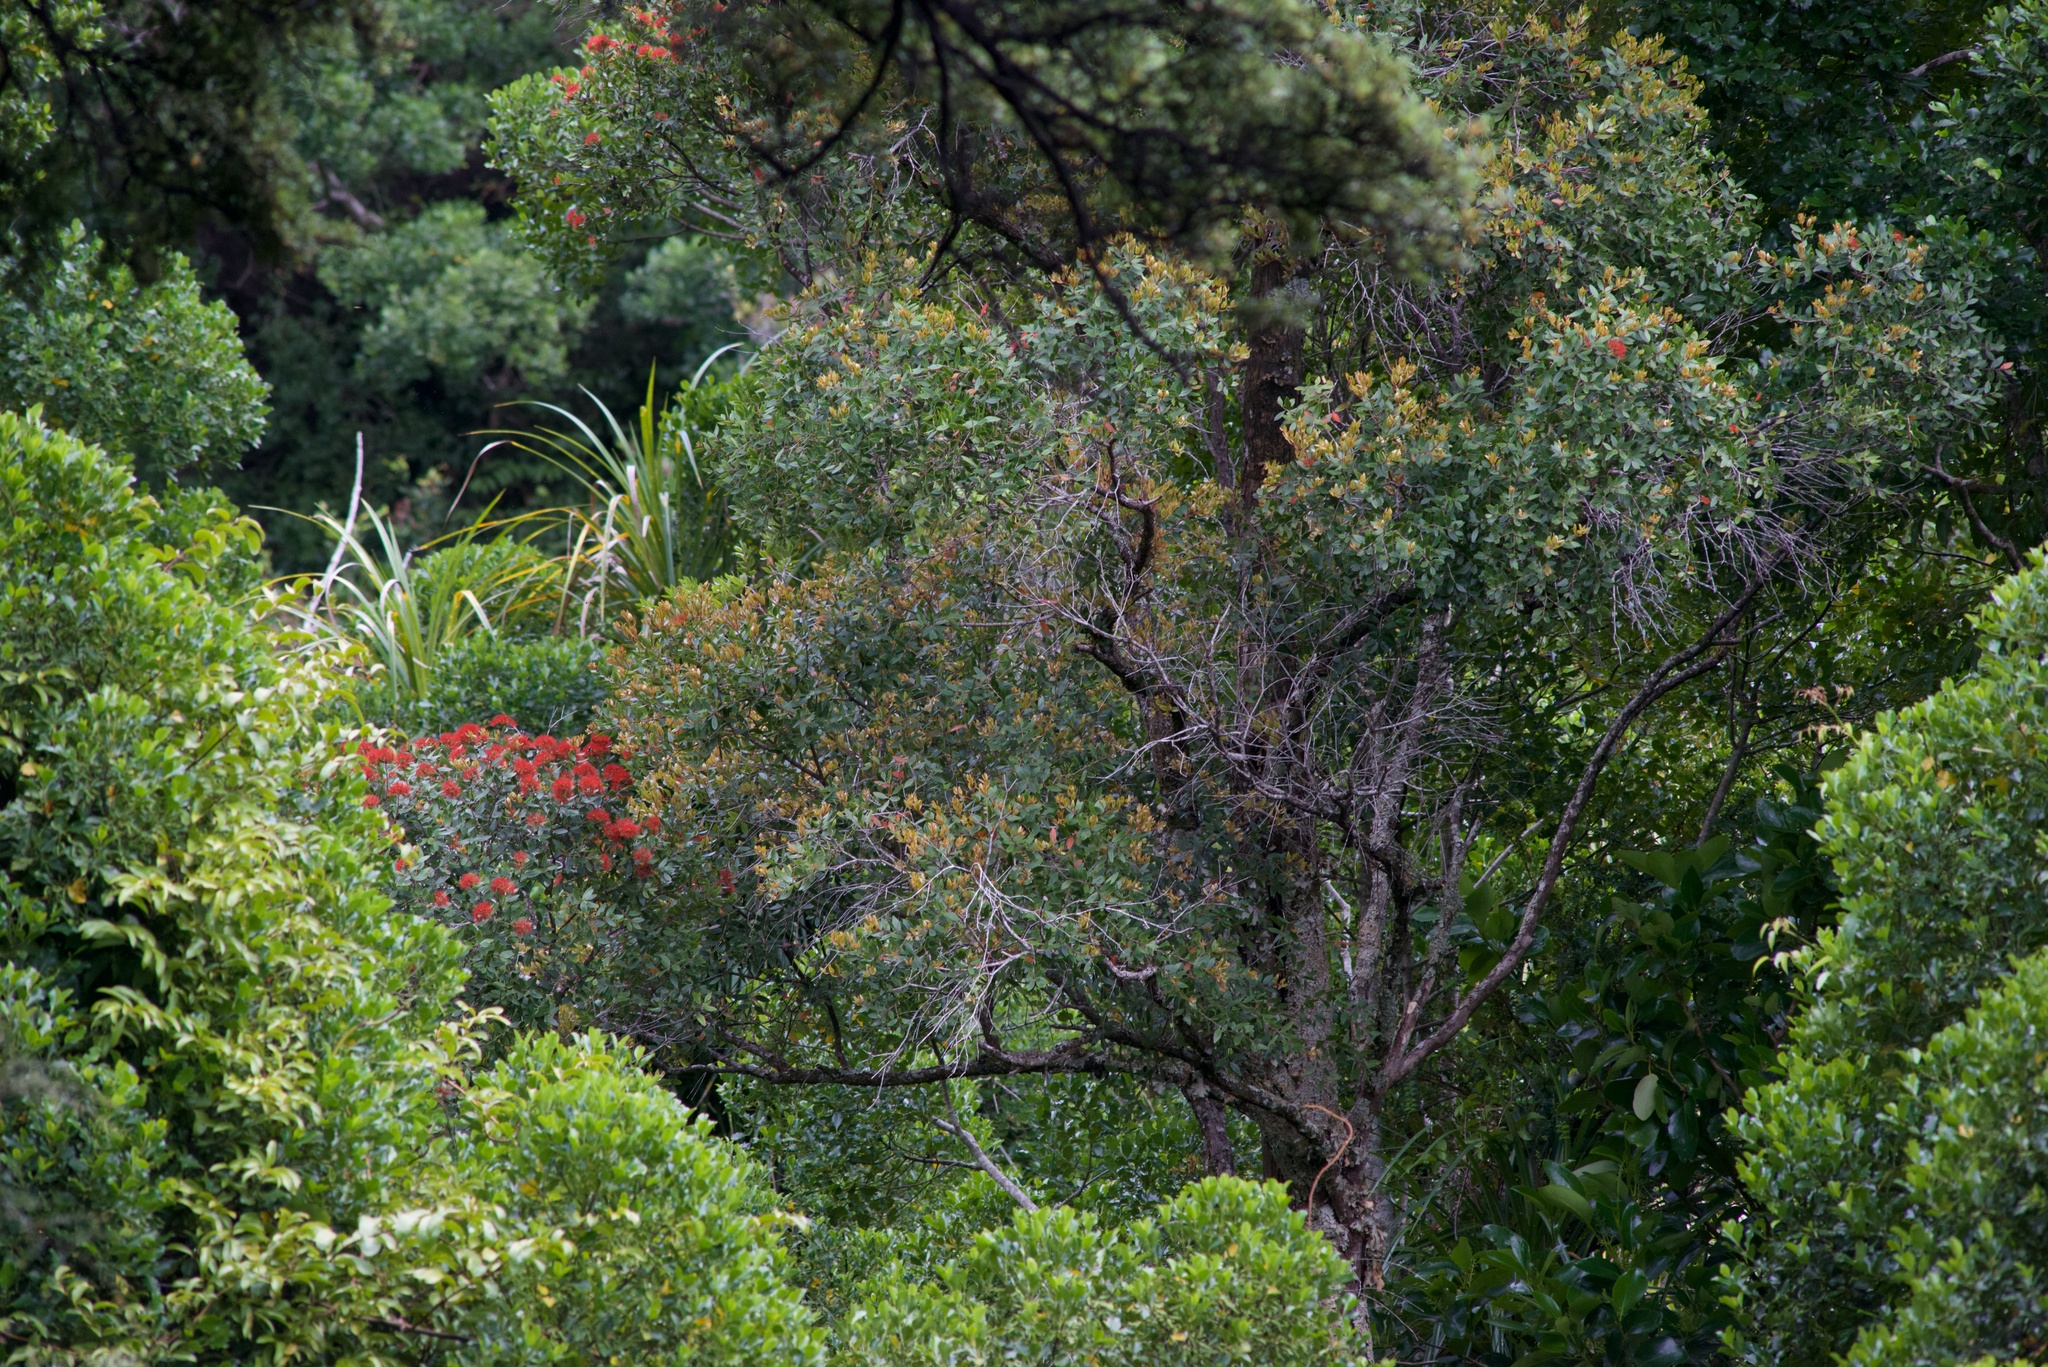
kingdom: Plantae
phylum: Tracheophyta
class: Magnoliopsida
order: Myrtales
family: Myrtaceae
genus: Metrosideros
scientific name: Metrosideros robusta
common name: Northern rata
